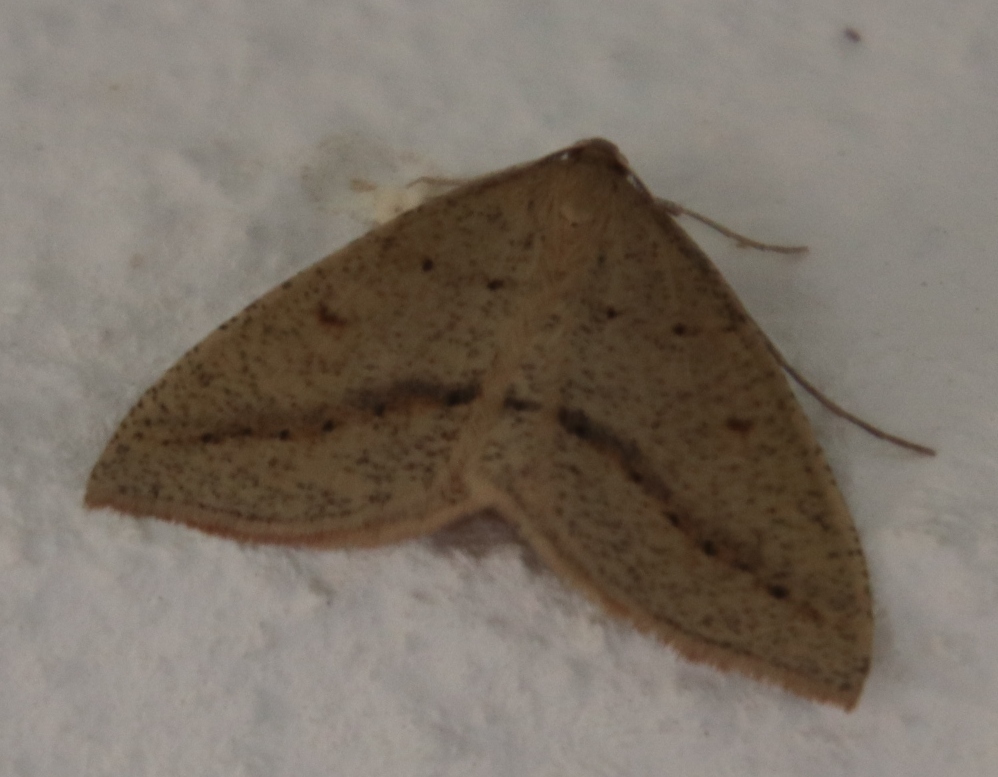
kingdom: Animalia
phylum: Arthropoda
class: Insecta
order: Lepidoptera
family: Geometridae
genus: Palaeaspilates
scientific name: Palaeaspilates inoffensa
